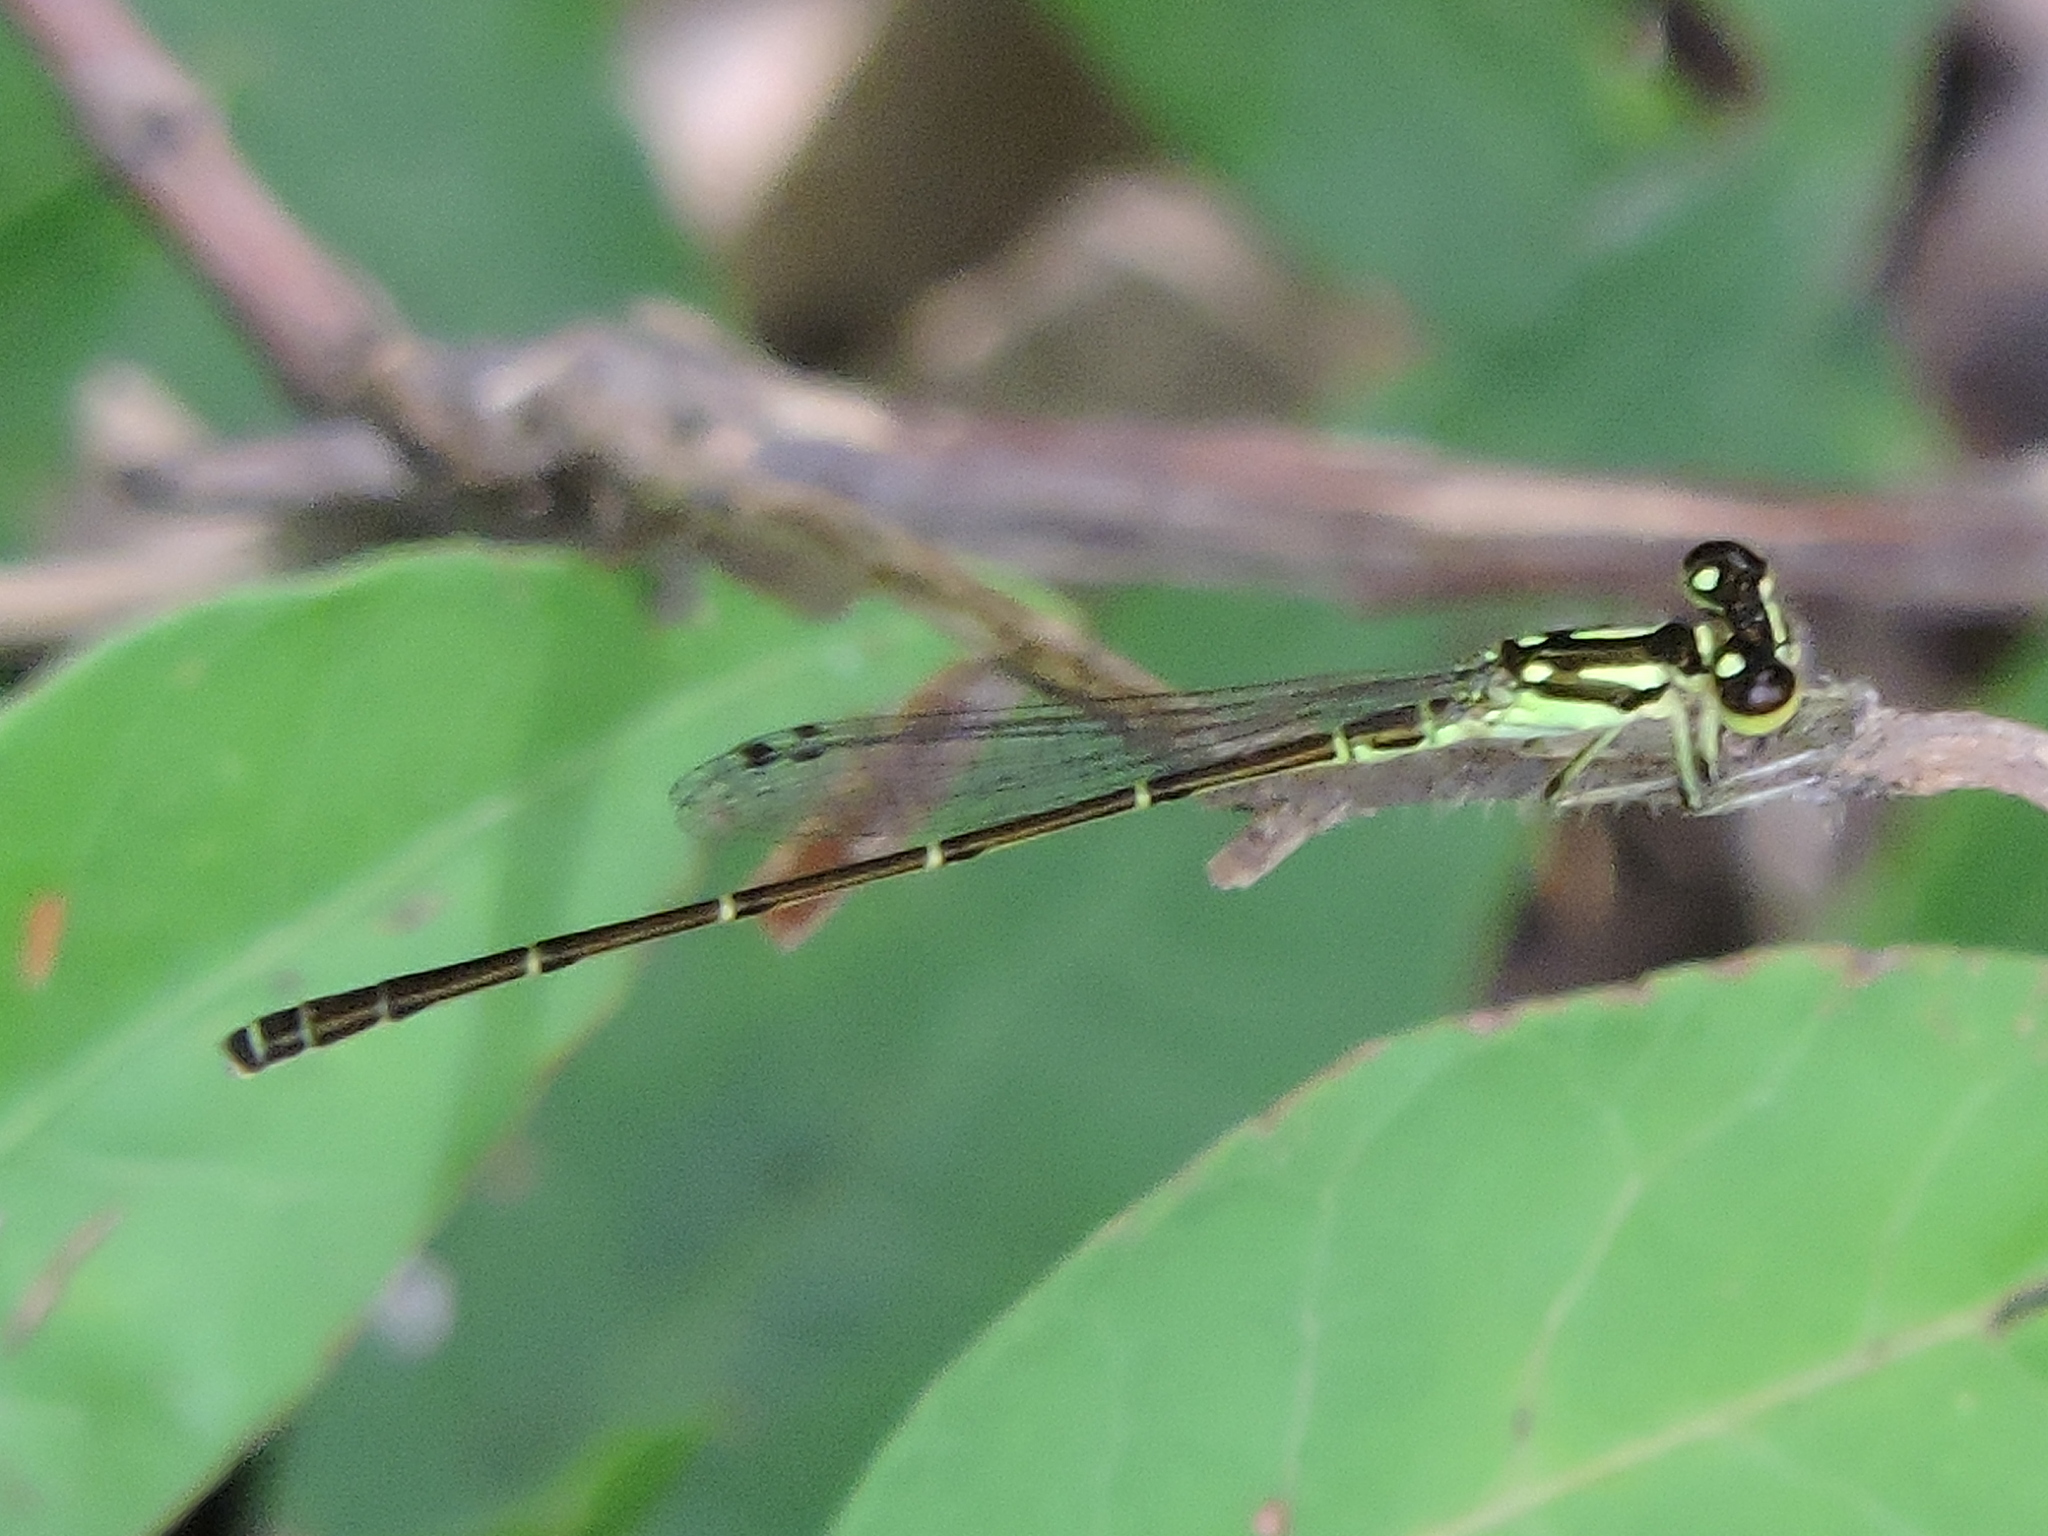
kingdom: Animalia
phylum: Arthropoda
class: Insecta
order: Odonata
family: Coenagrionidae
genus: Ischnura
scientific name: Ischnura posita
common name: Fragile forktail
